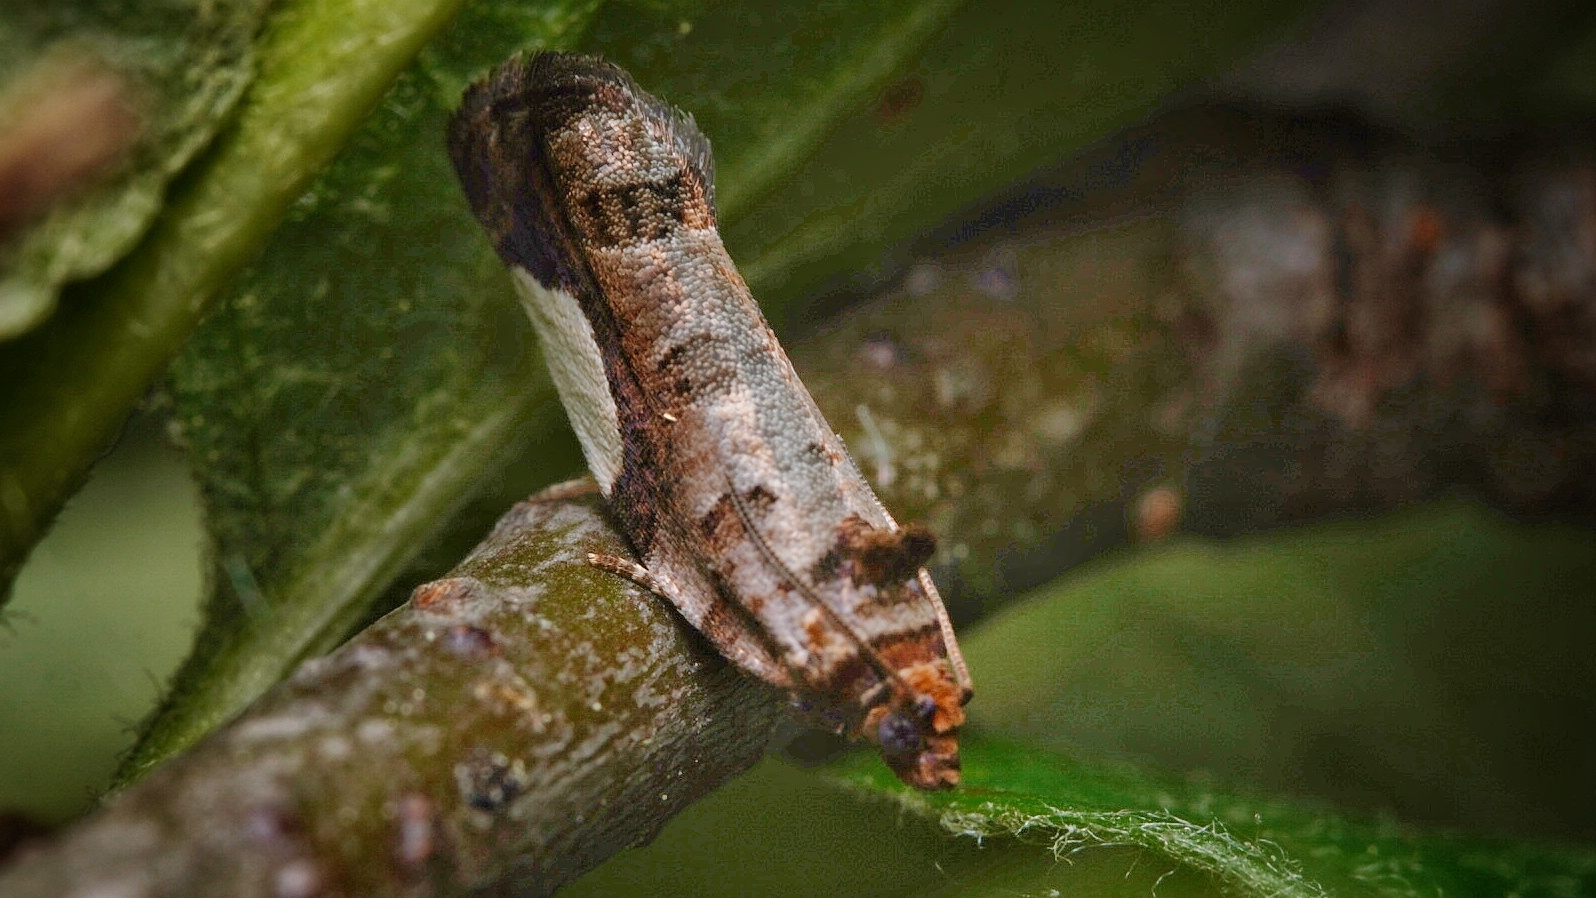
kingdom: Animalia
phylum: Arthropoda
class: Insecta
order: Lepidoptera
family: Tortricidae
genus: Hedya
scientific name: Hedya chionosema
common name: White-spotted hedya moth
